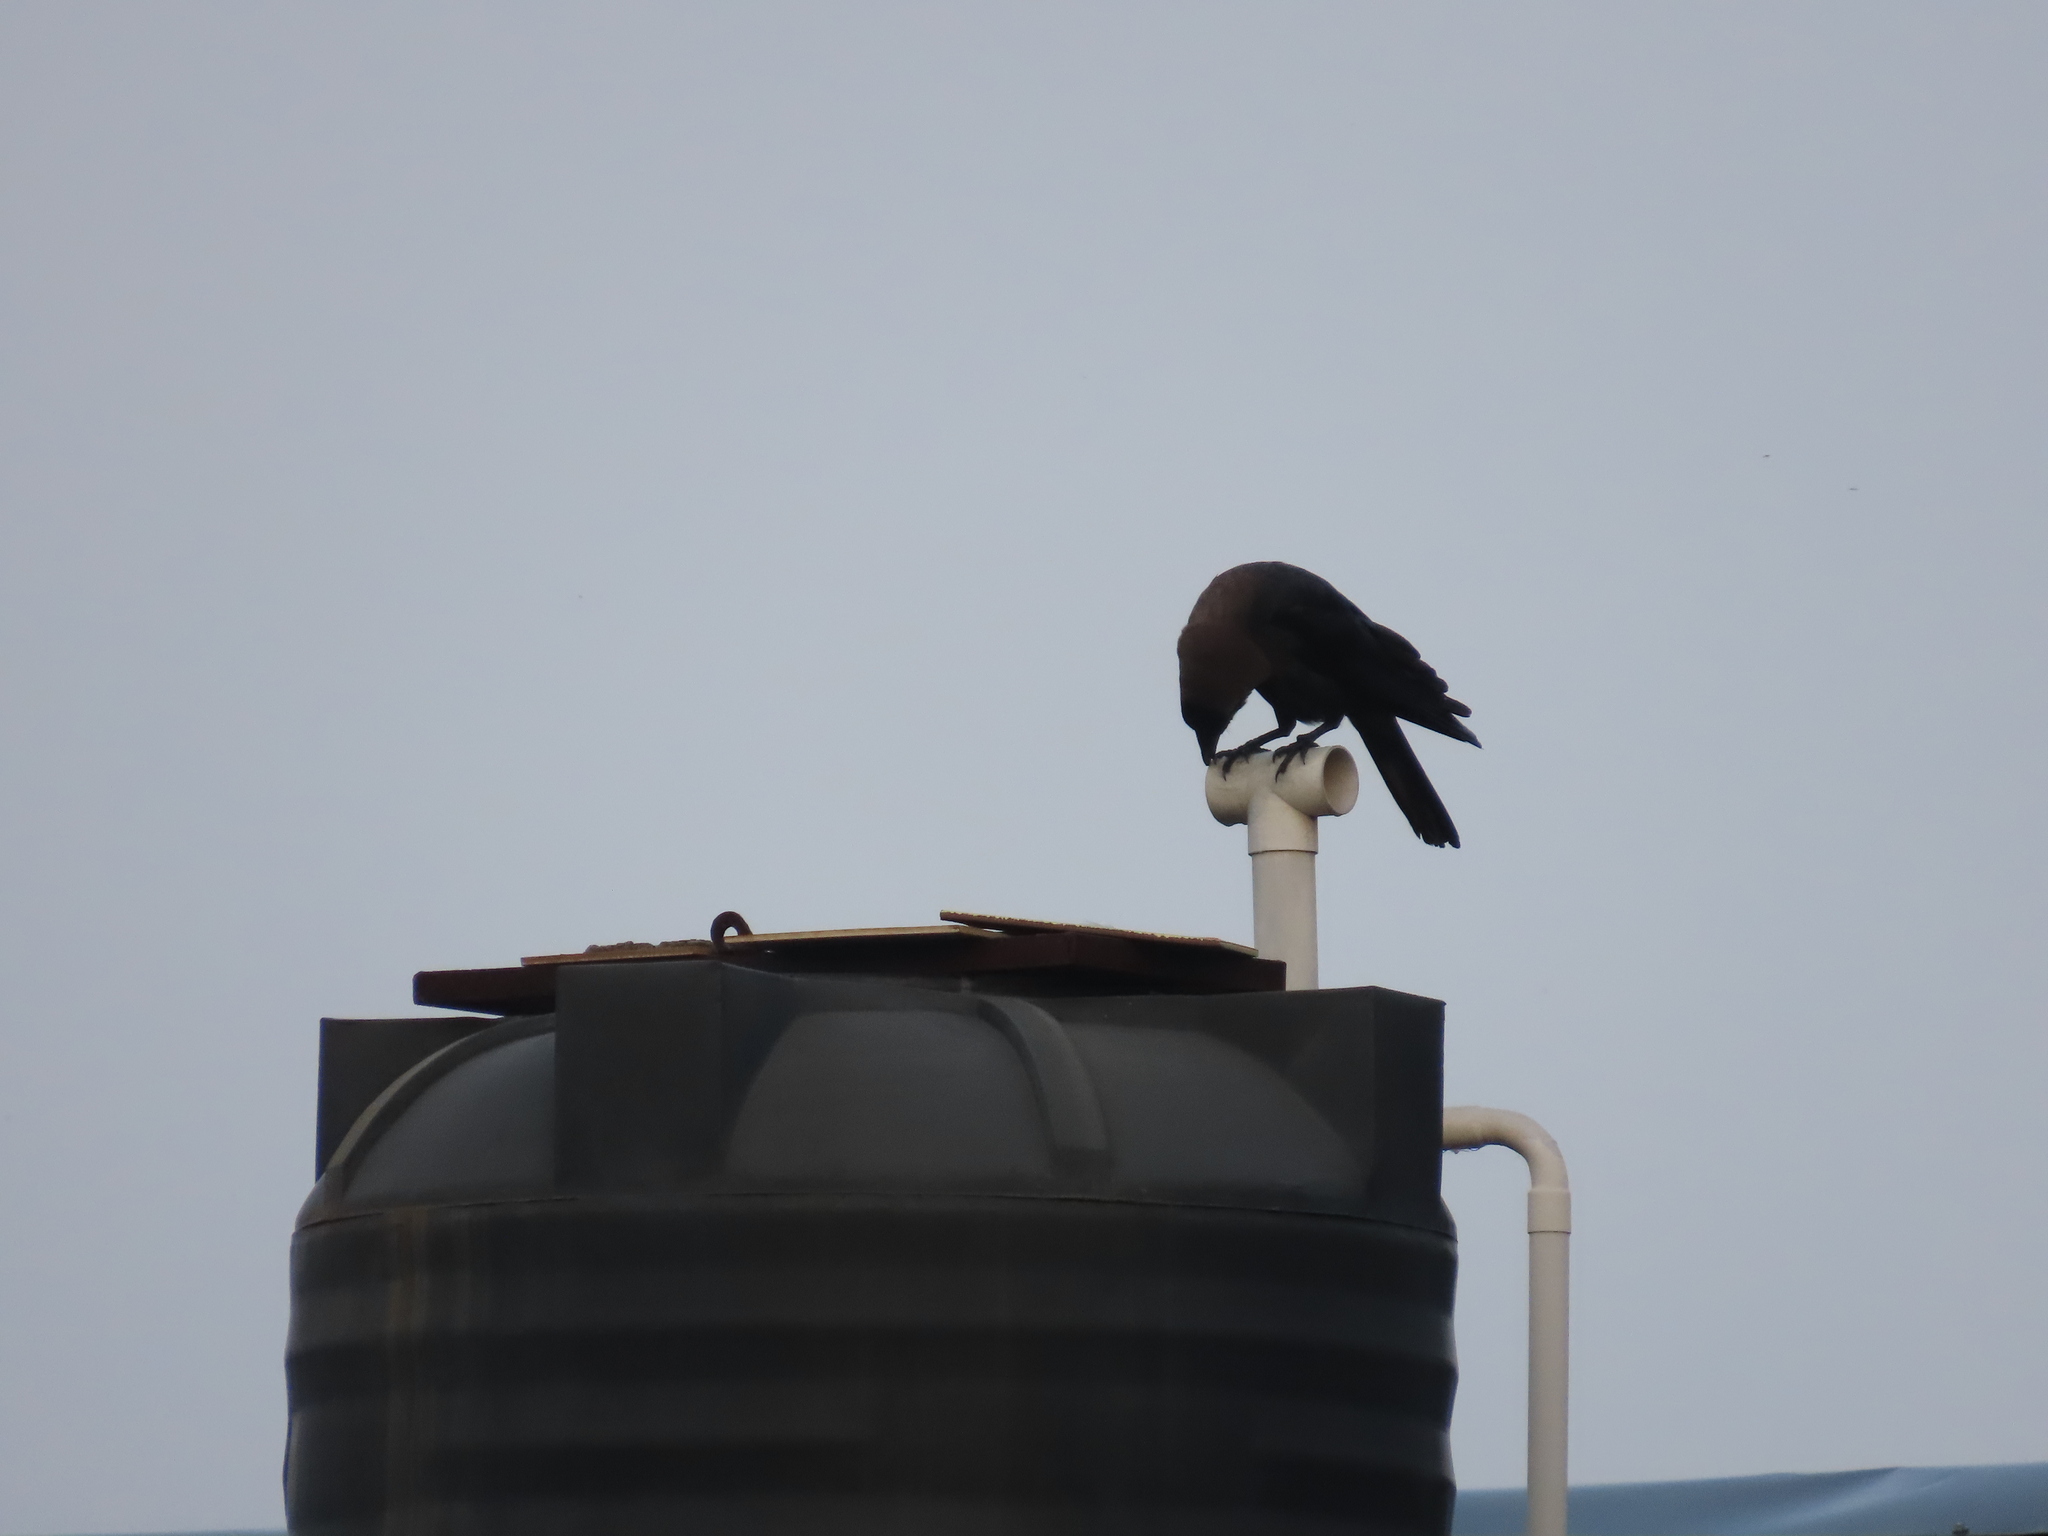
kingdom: Animalia
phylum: Chordata
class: Aves
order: Passeriformes
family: Corvidae
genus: Corvus
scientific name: Corvus splendens
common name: House crow
